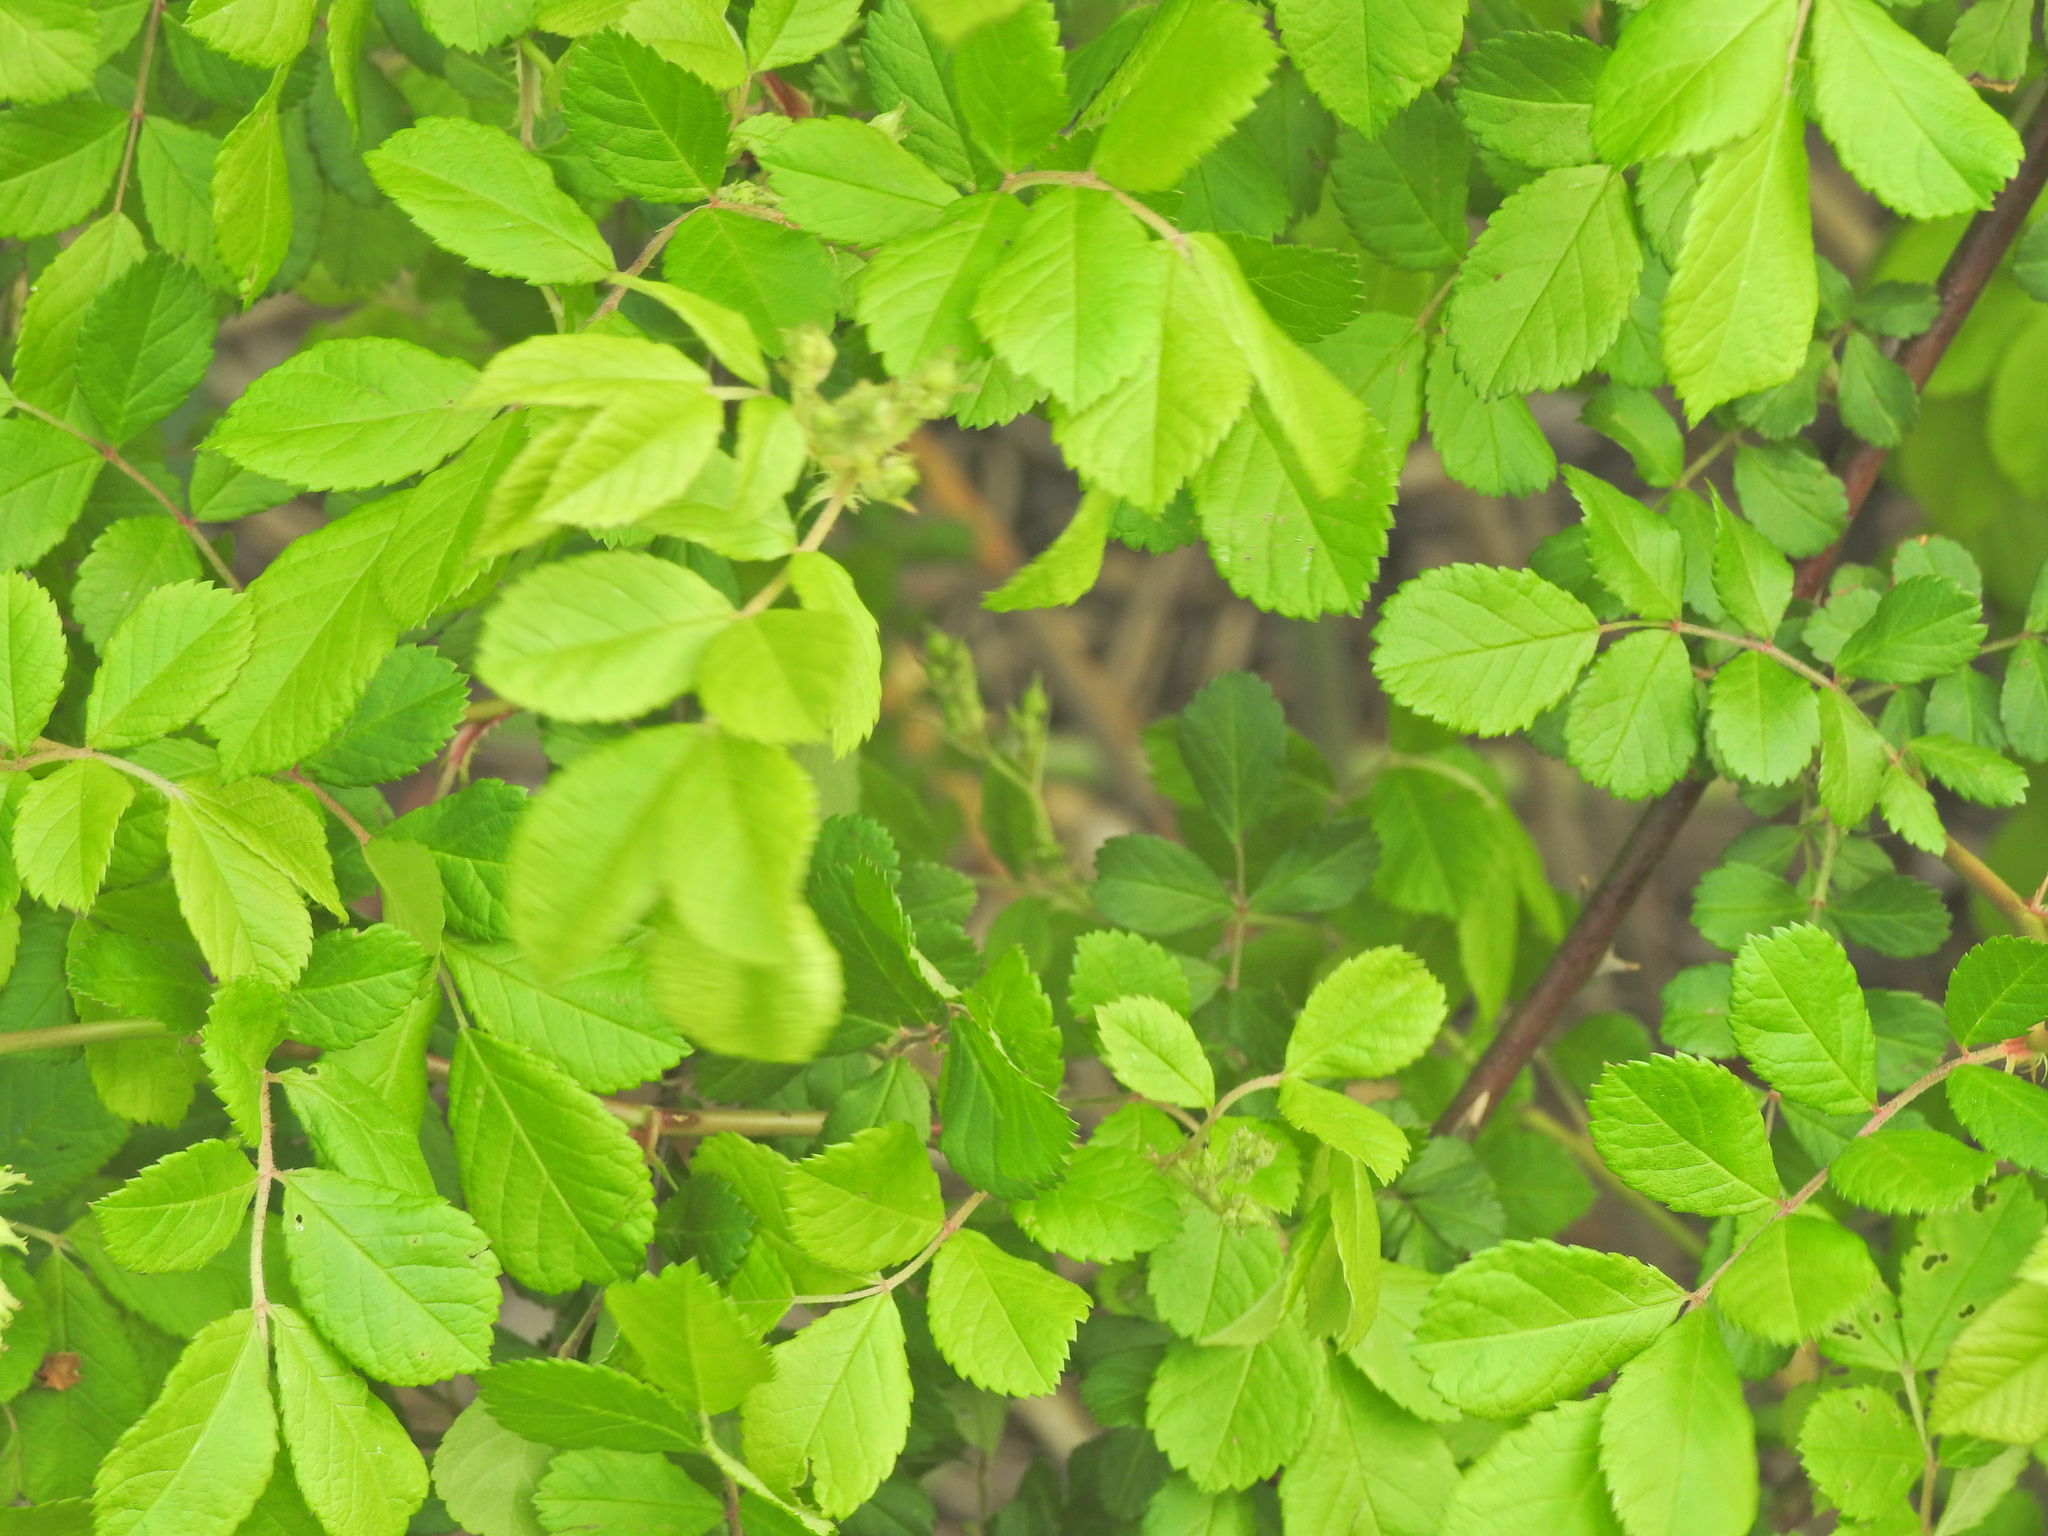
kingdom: Plantae
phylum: Tracheophyta
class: Magnoliopsida
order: Rosales
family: Rosaceae
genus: Rosa
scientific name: Rosa multiflora
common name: Multiflora rose
